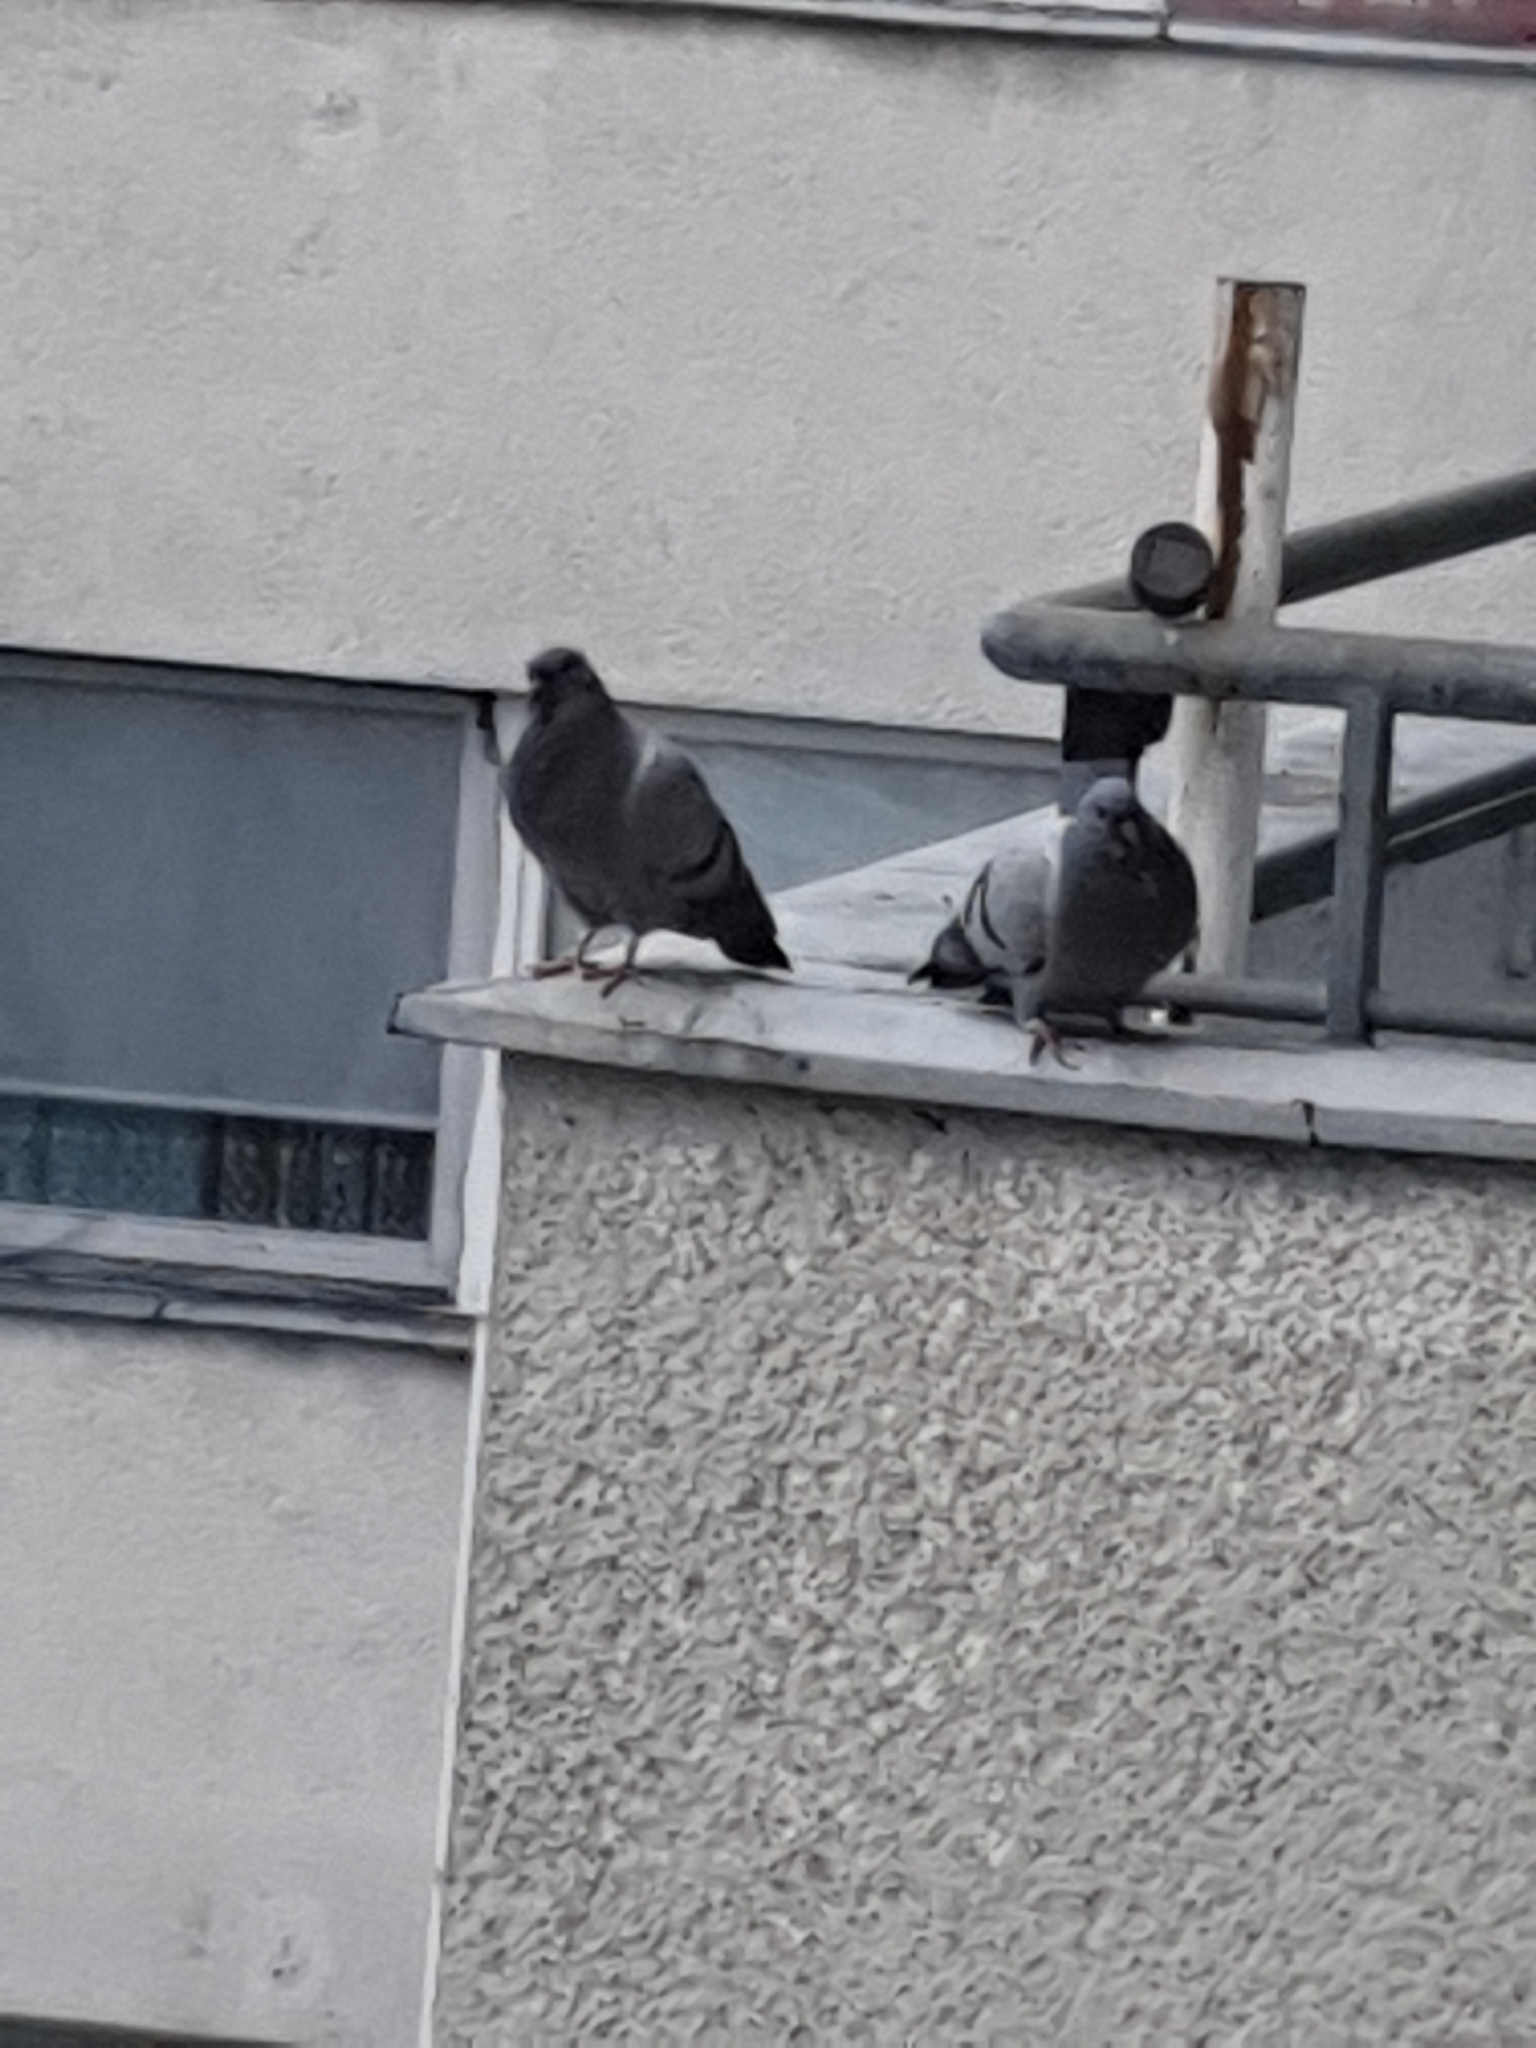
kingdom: Animalia
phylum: Chordata
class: Aves
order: Columbiformes
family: Columbidae
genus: Columba
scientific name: Columba livia
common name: Rock pigeon
